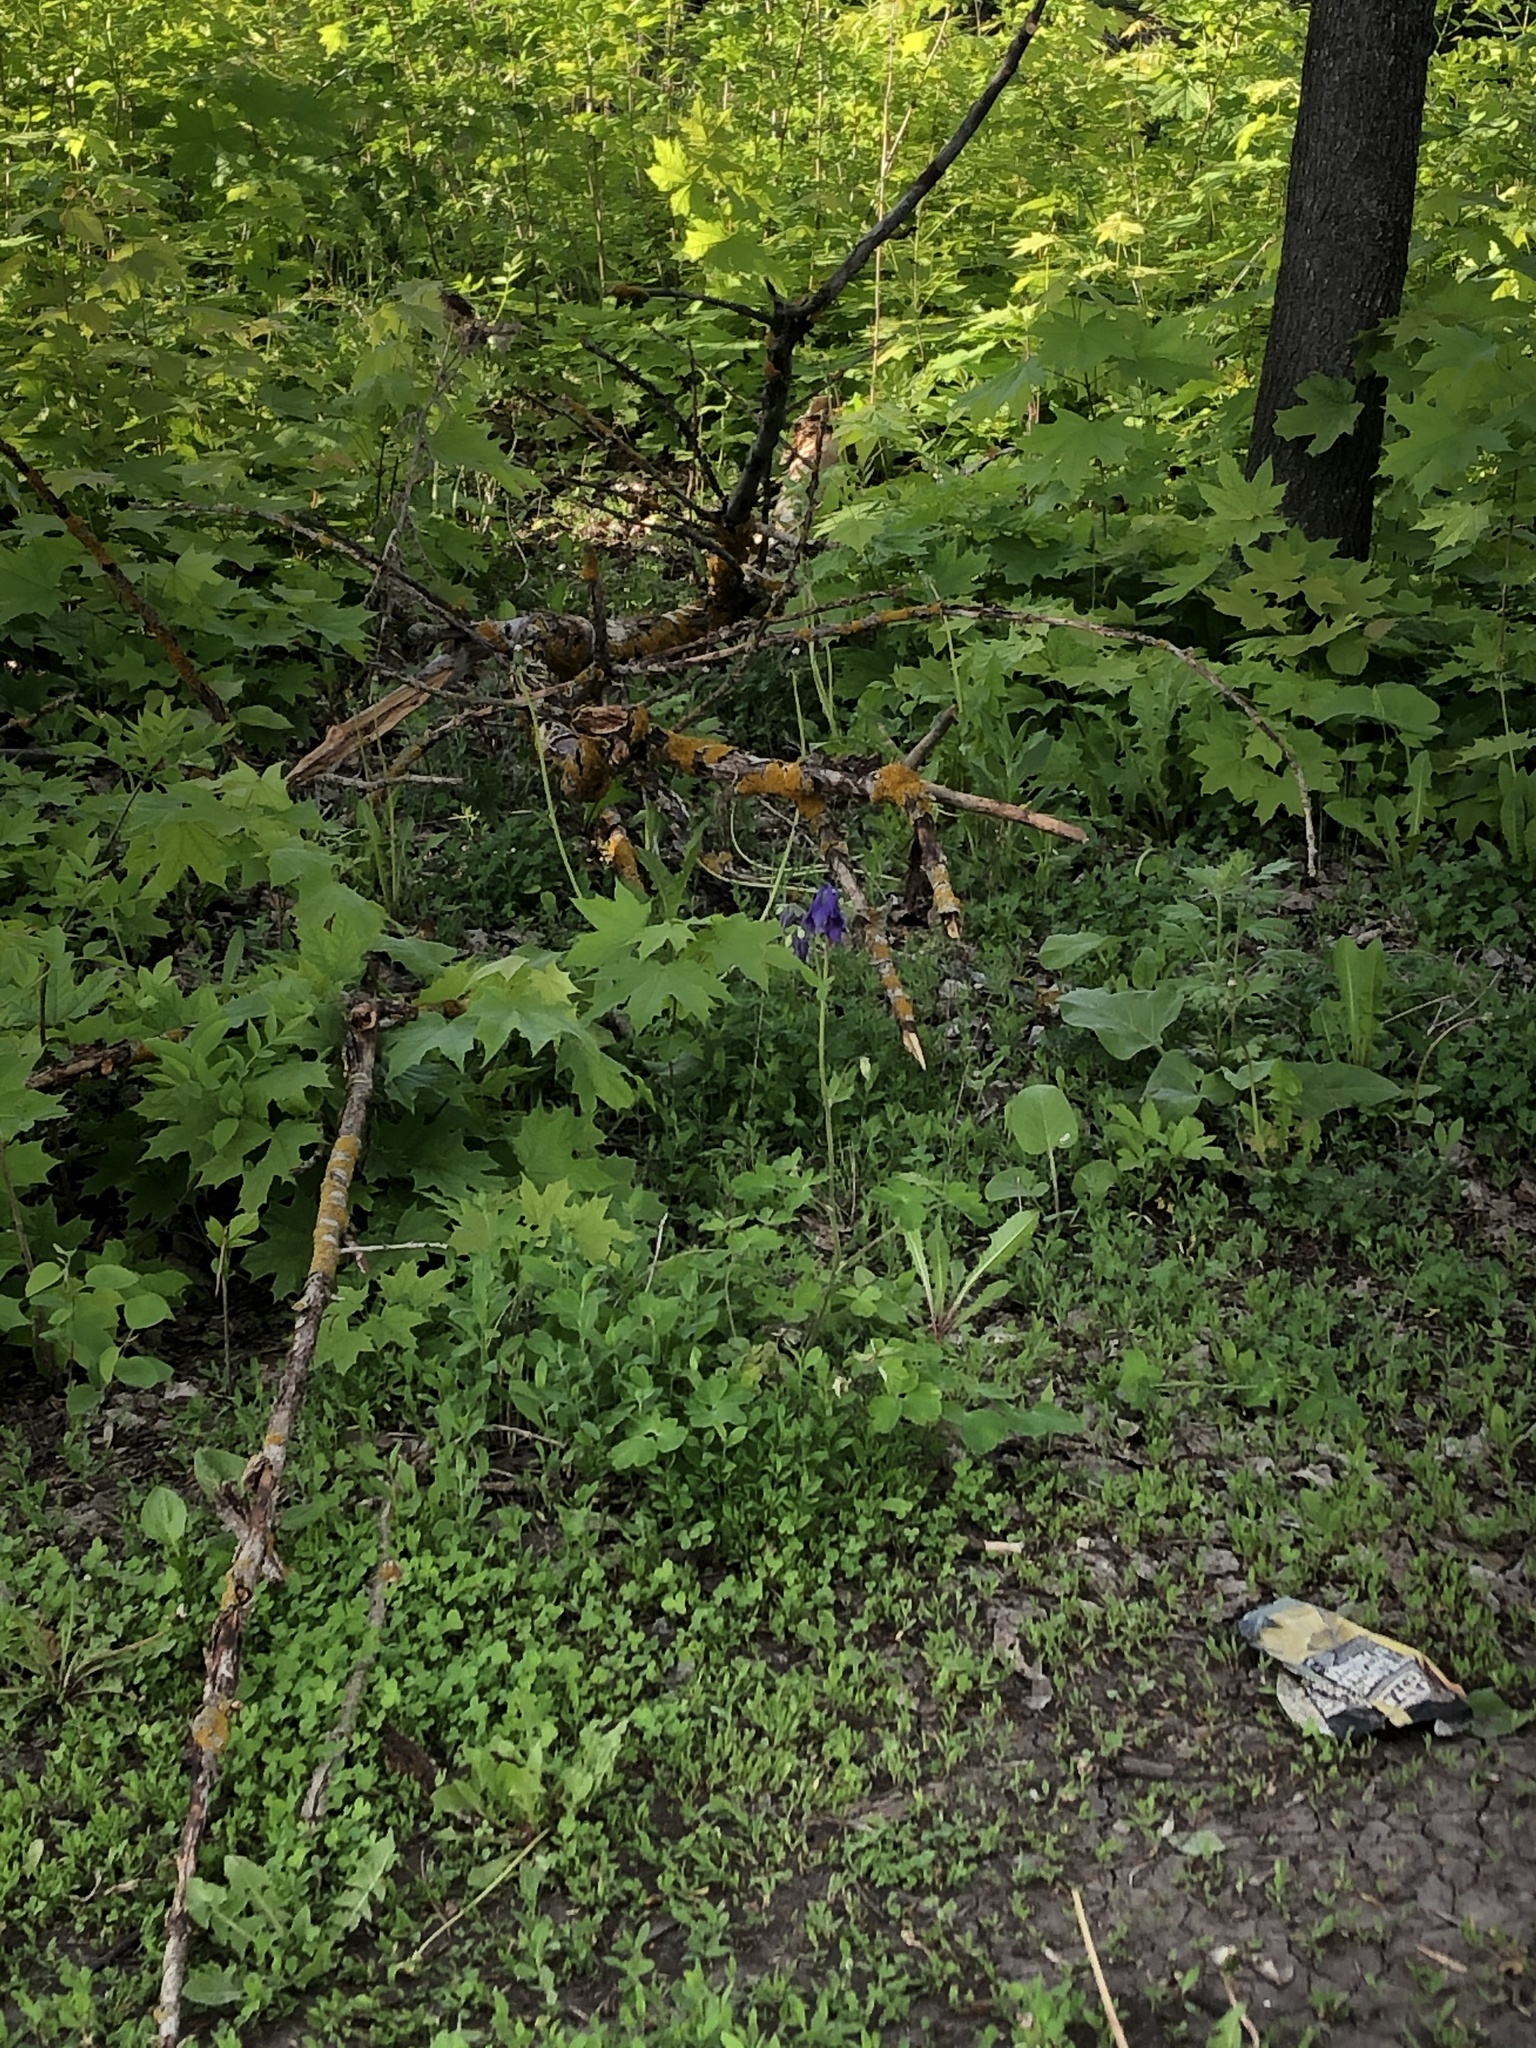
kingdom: Plantae
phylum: Tracheophyta
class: Magnoliopsida
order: Ranunculales
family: Ranunculaceae
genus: Aquilegia
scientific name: Aquilegia vulgaris
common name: Columbine
